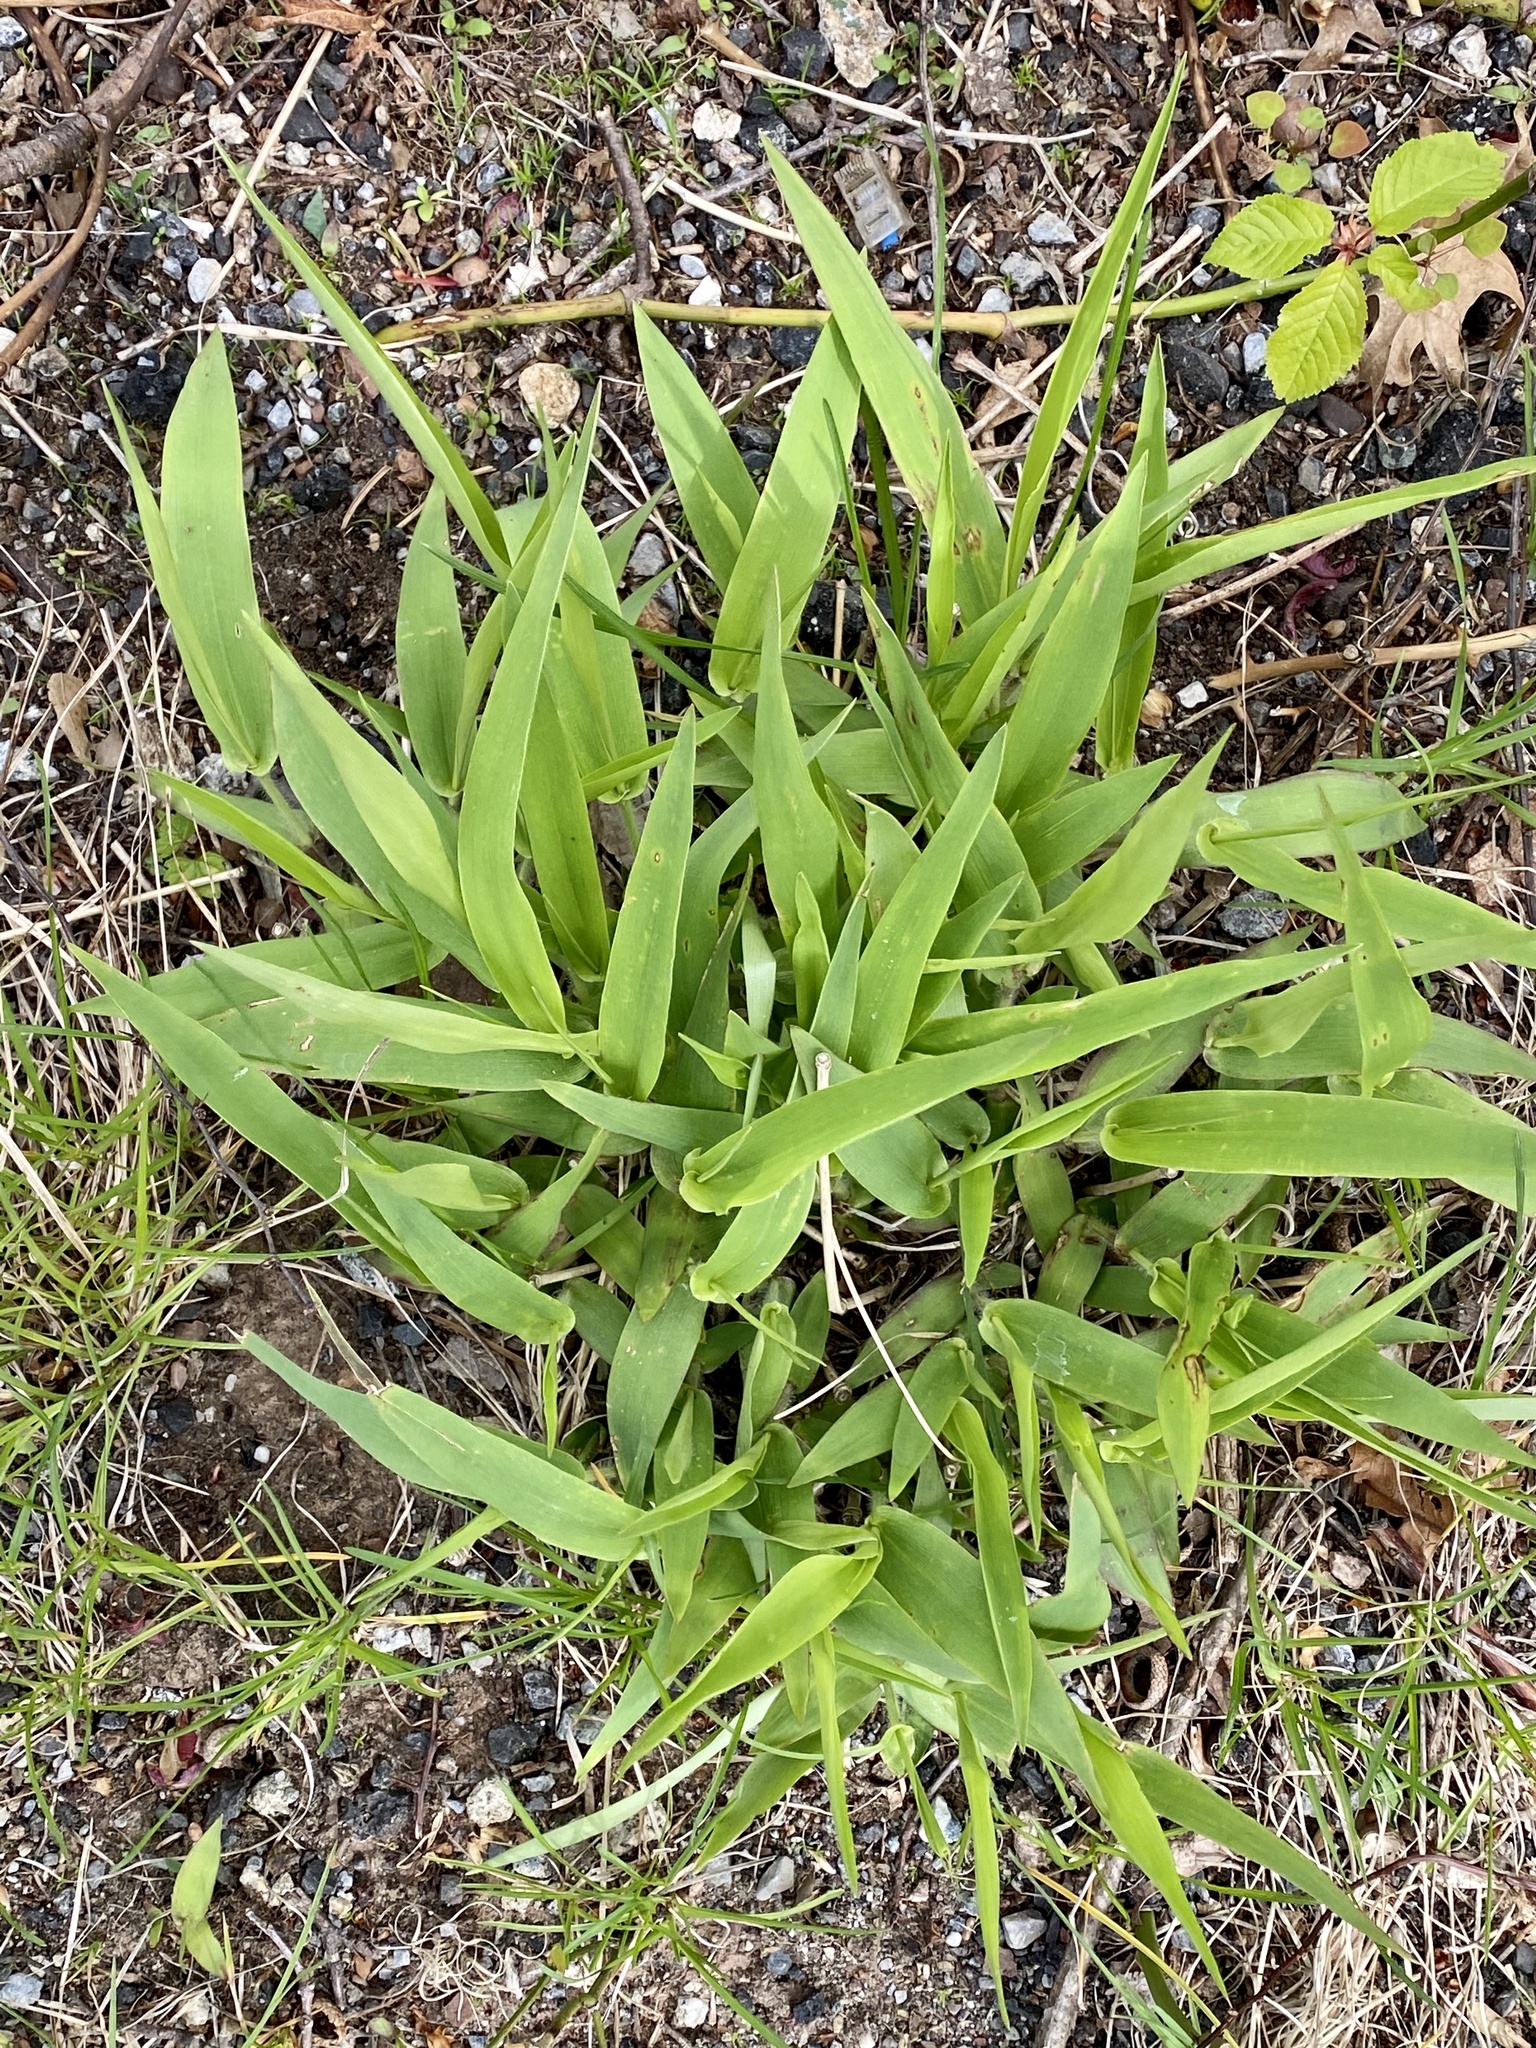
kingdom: Plantae
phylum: Tracheophyta
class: Liliopsida
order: Poales
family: Poaceae
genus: Dichanthelium
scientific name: Dichanthelium clandestinum
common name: Deer-tongue grass
